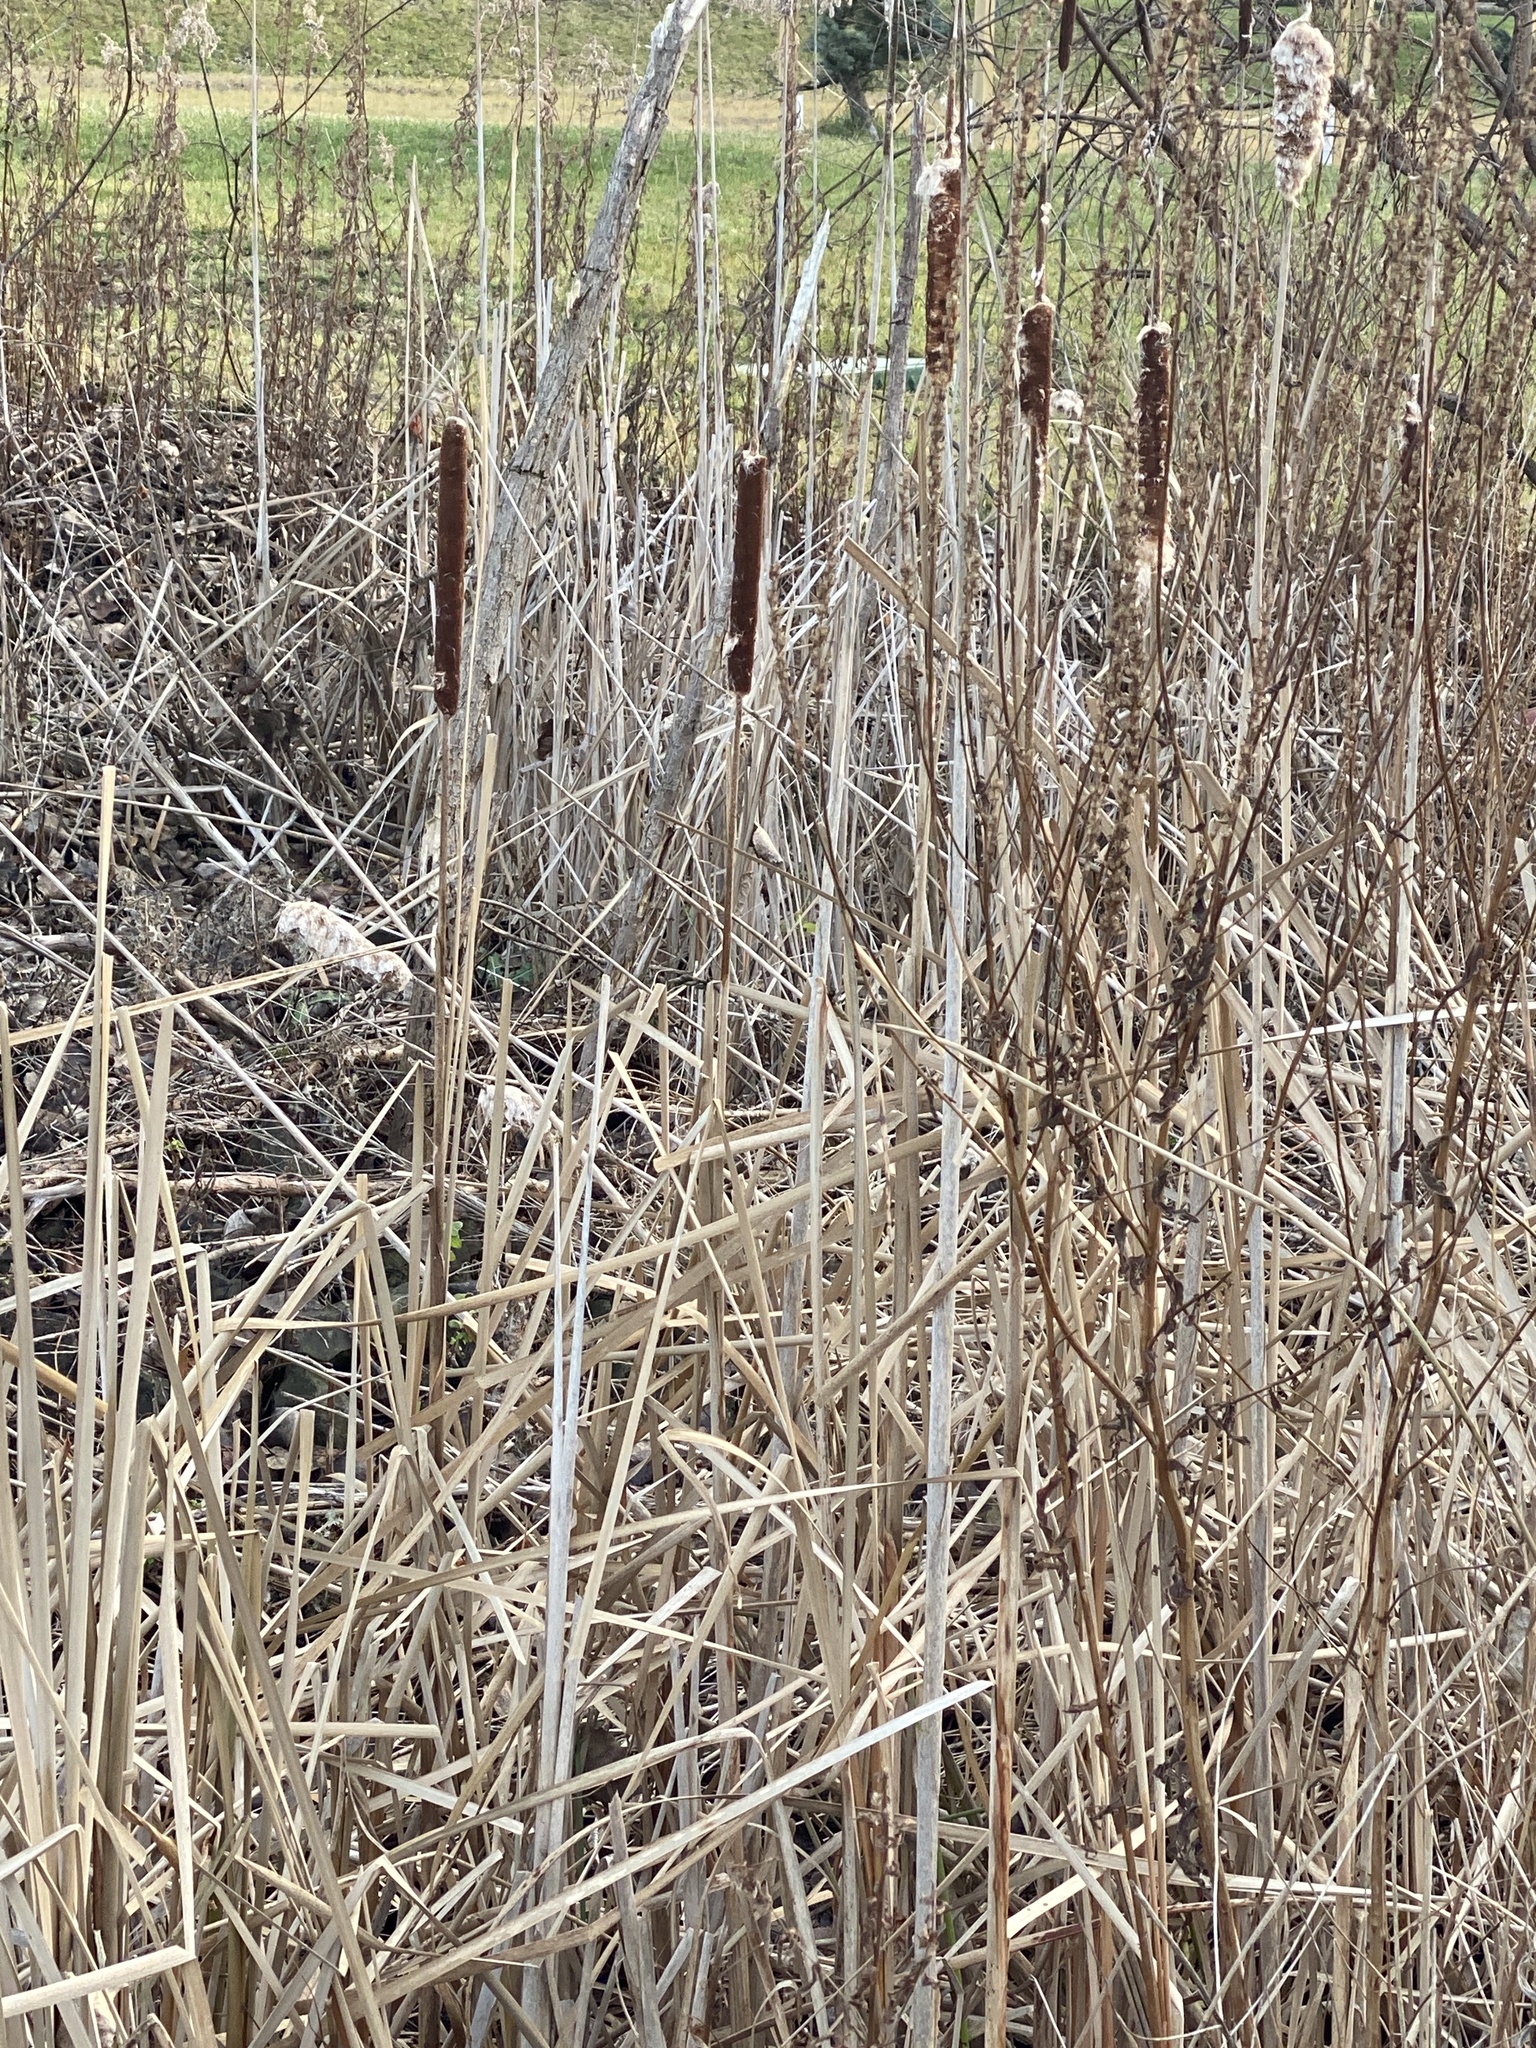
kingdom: Plantae
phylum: Tracheophyta
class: Liliopsida
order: Poales
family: Typhaceae
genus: Typha
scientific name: Typha latifolia
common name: Broadleaf cattail
